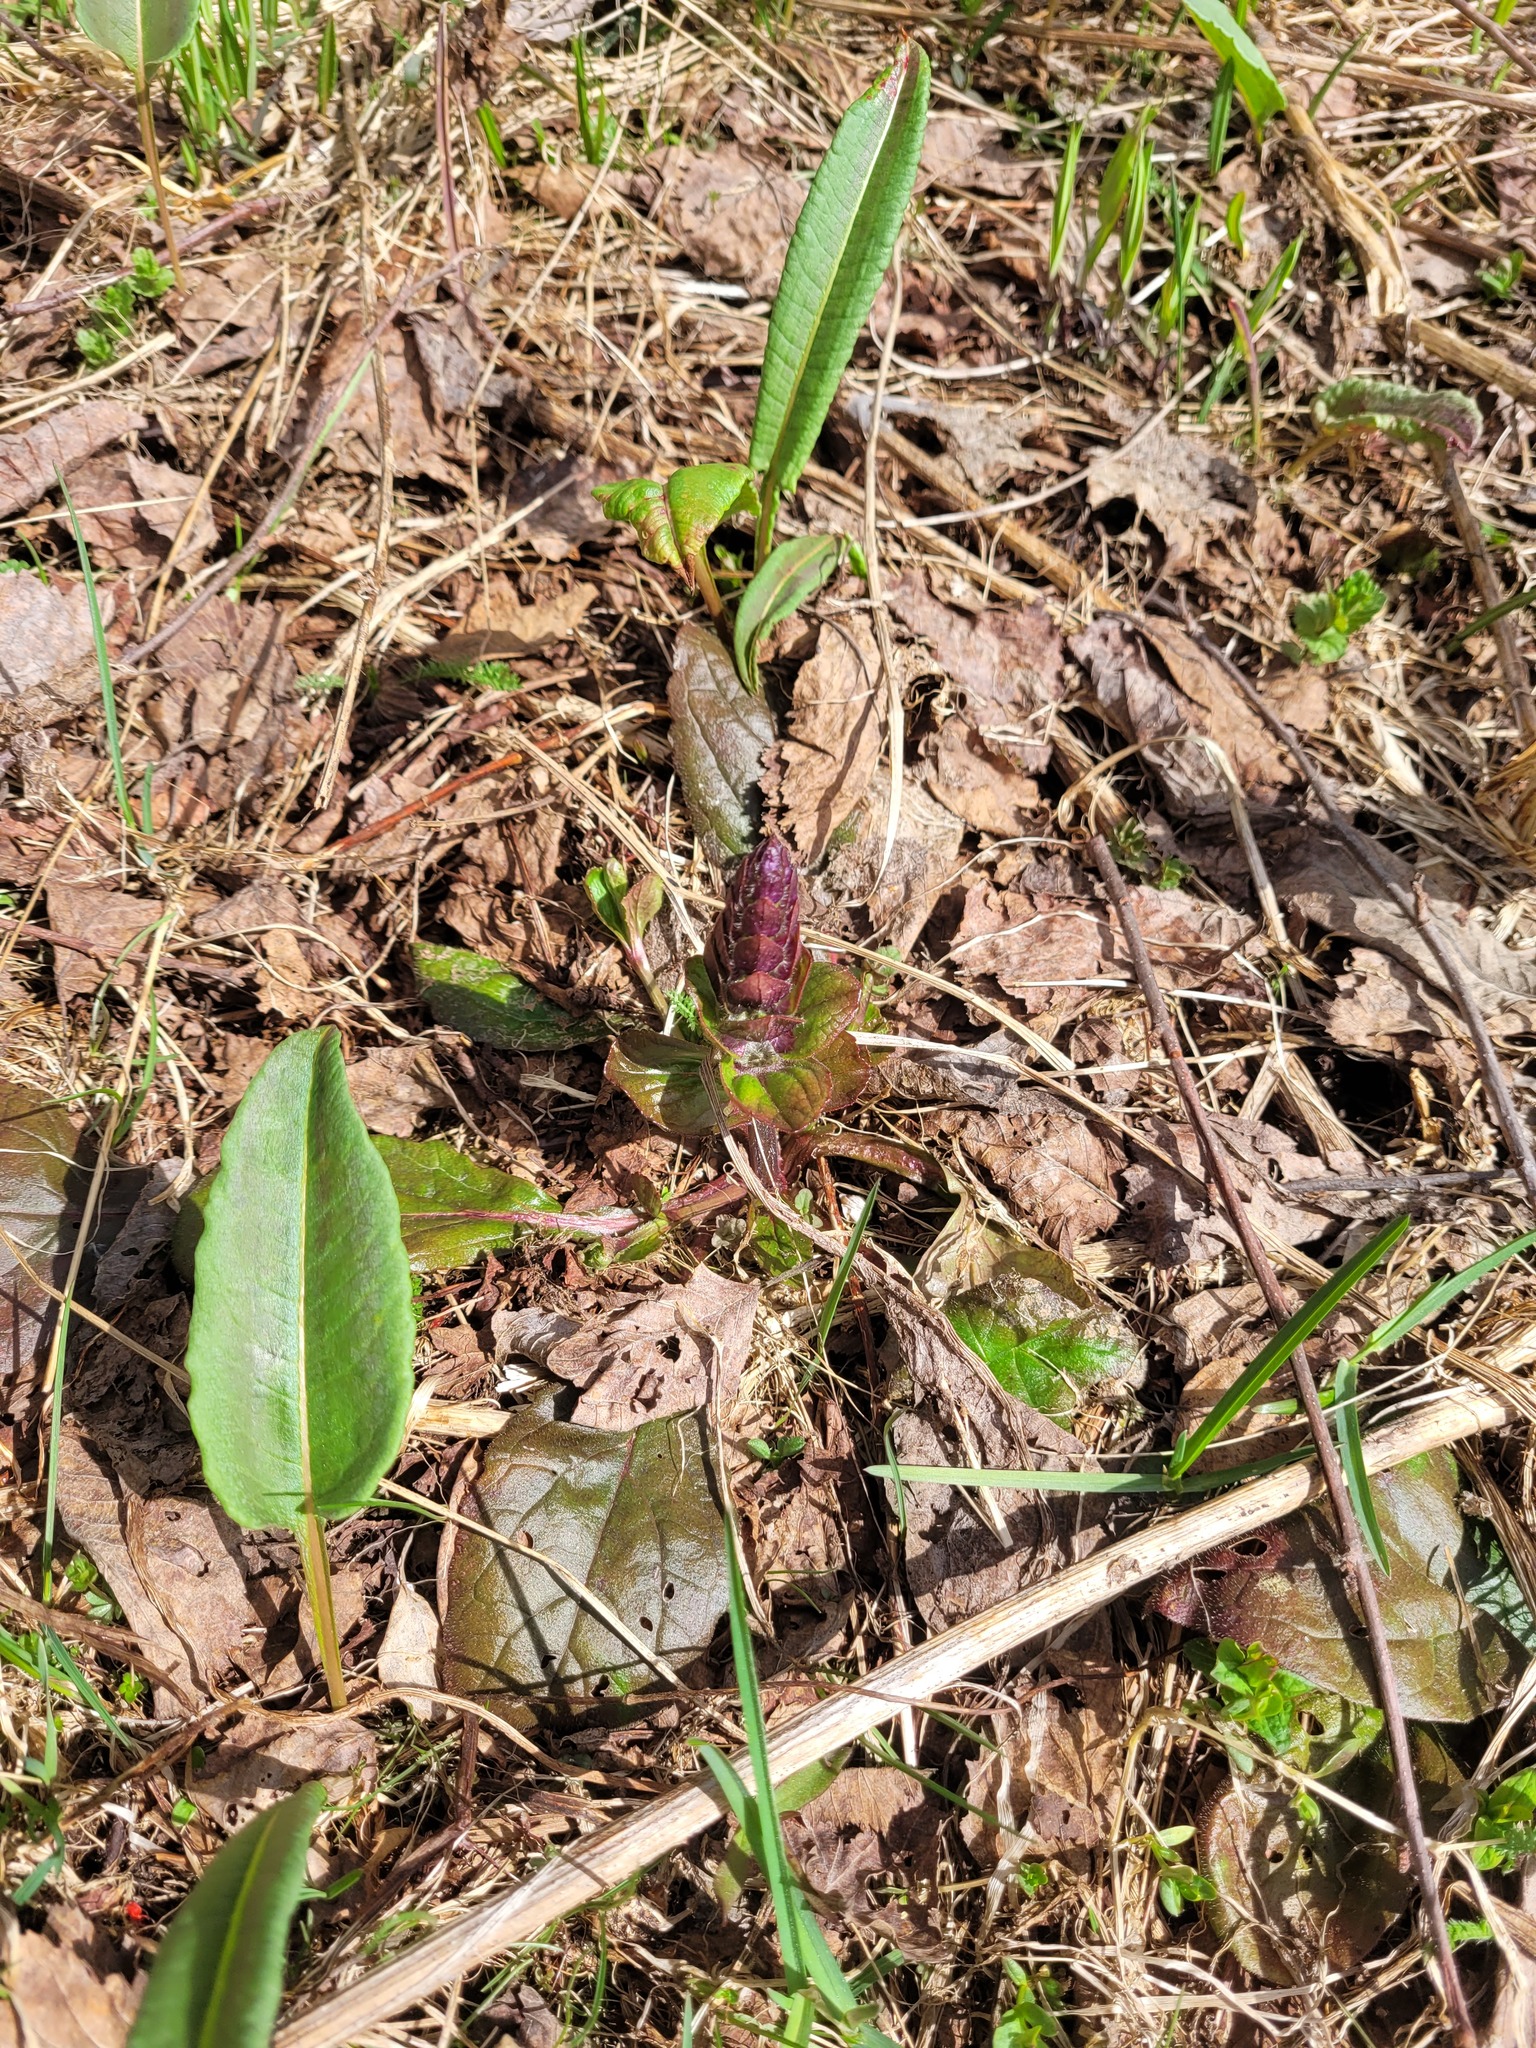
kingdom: Plantae
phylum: Tracheophyta
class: Magnoliopsida
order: Lamiales
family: Lamiaceae
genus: Ajuga
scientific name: Ajuga reptans
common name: Bugle
